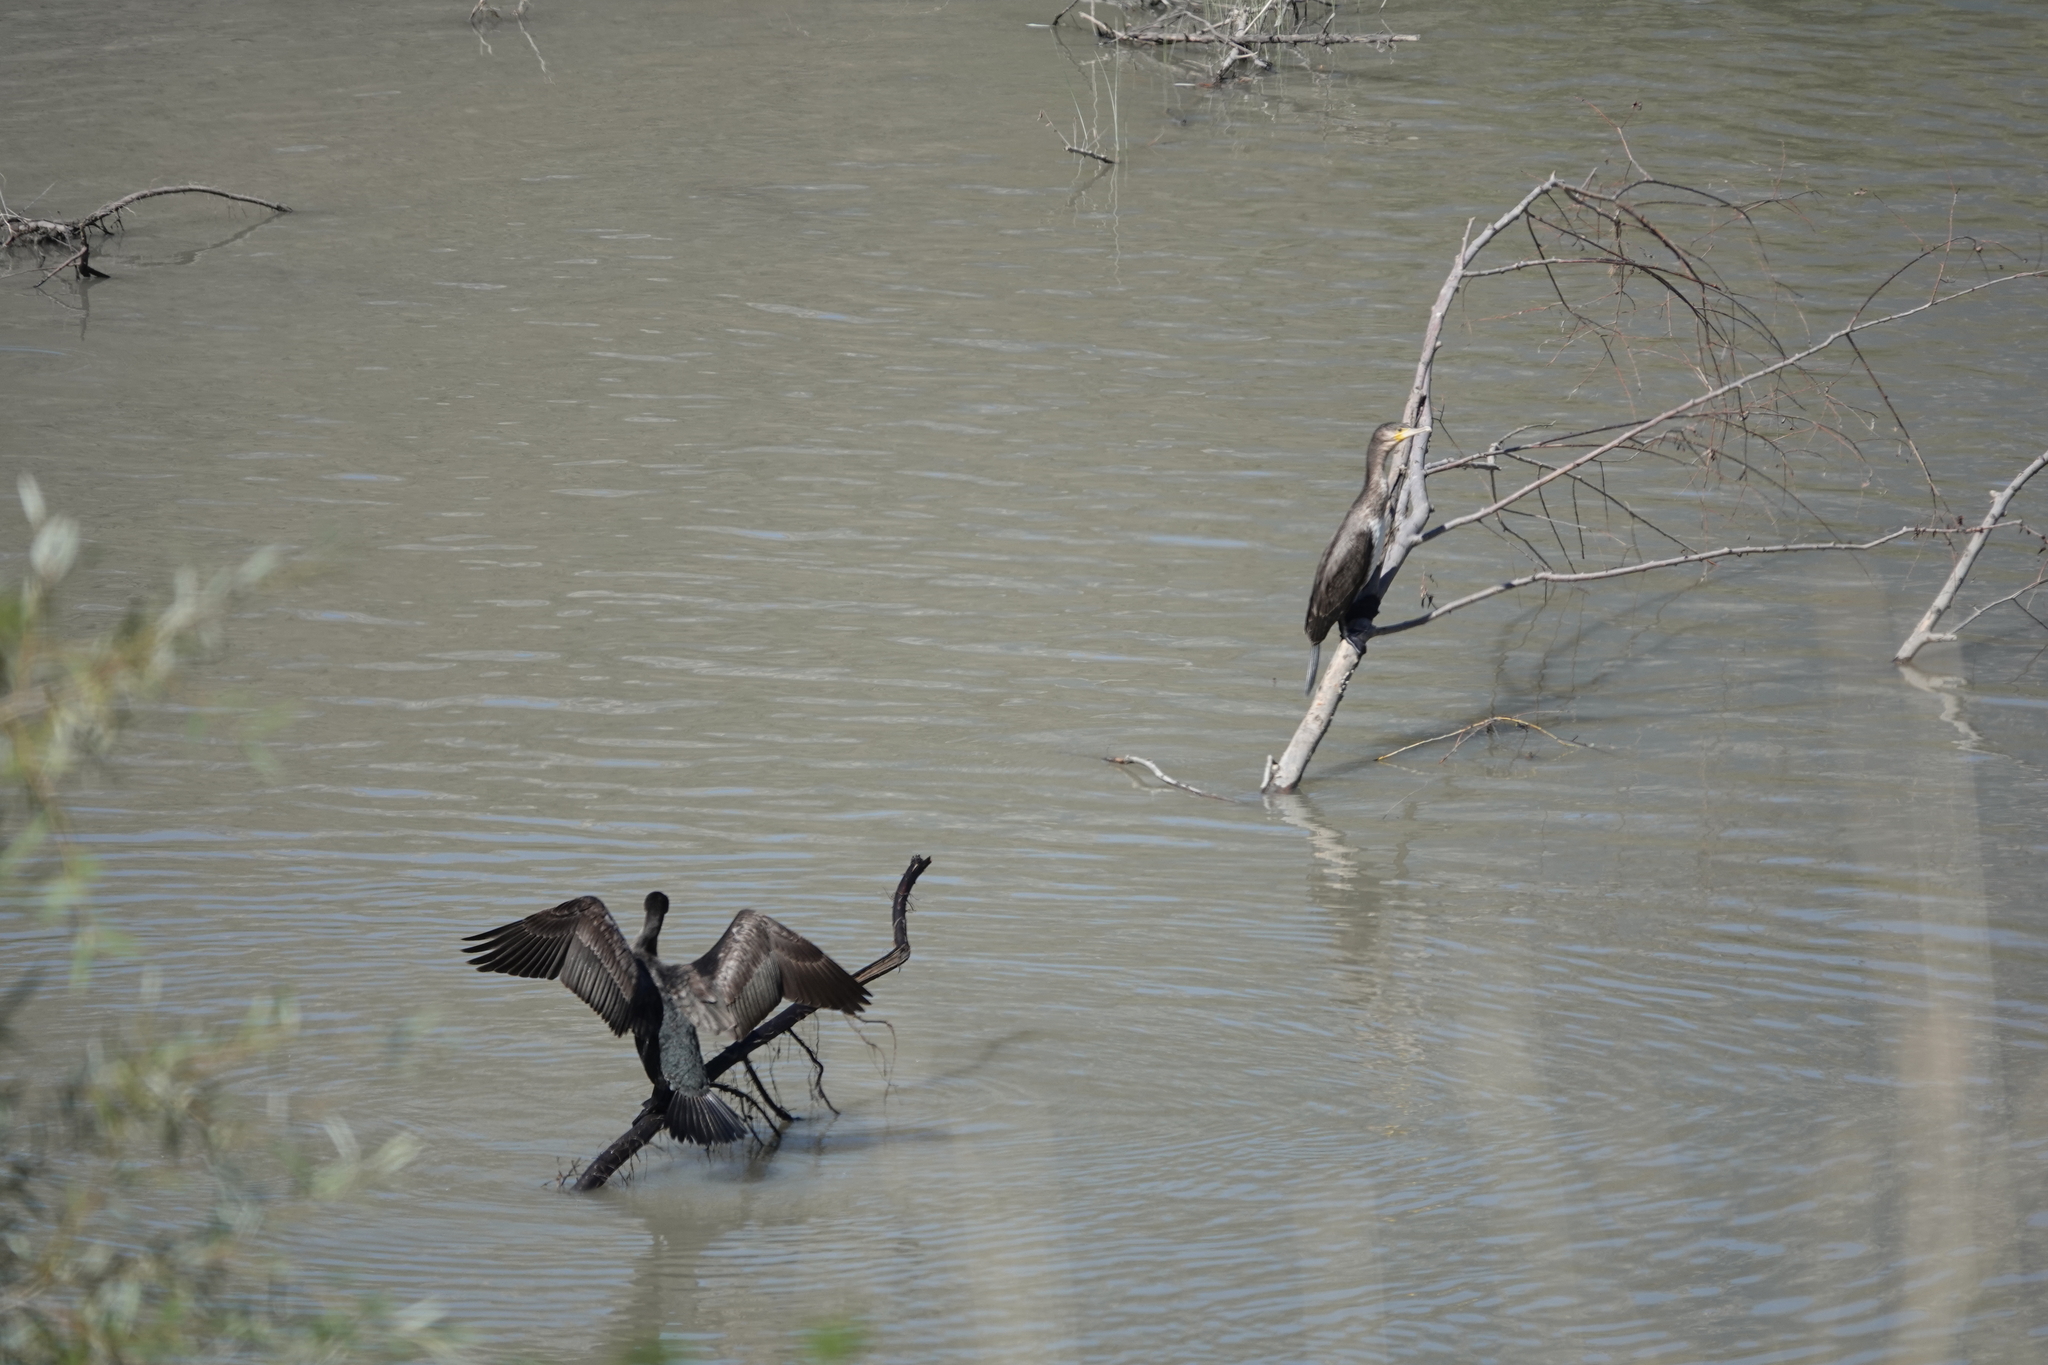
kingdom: Animalia
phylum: Chordata
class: Aves
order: Suliformes
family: Phalacrocoracidae
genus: Phalacrocorax
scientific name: Phalacrocorax carbo
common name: Great cormorant
